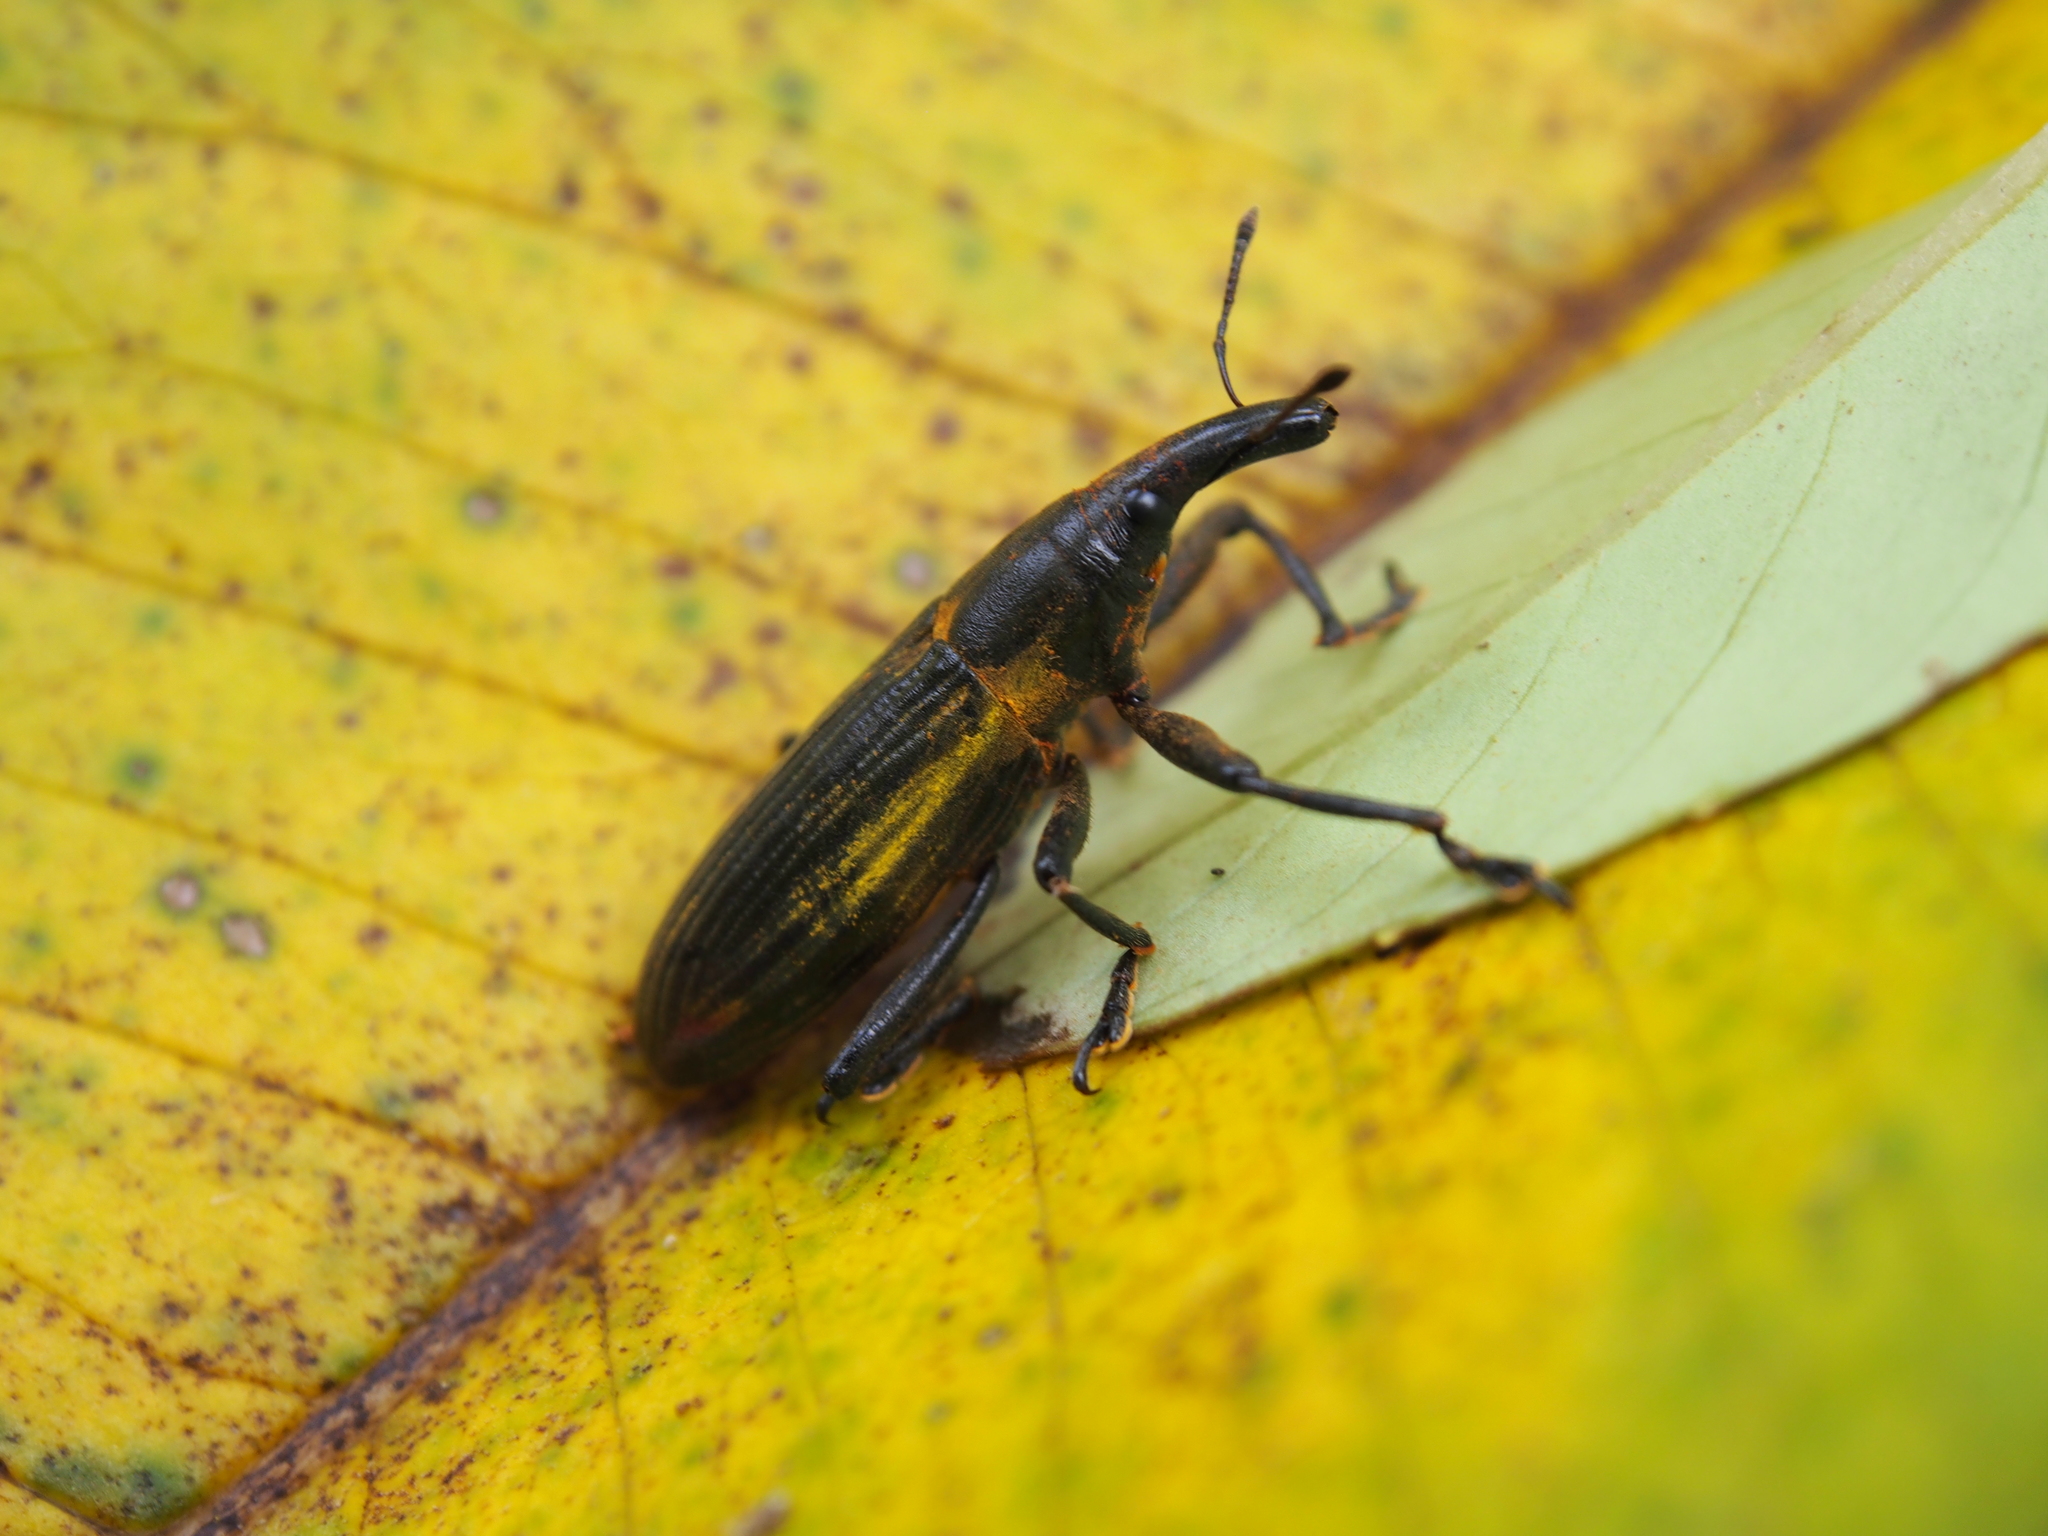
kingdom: Animalia
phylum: Arthropoda
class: Insecta
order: Coleoptera
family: Curculionidae
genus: Lixus
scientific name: Lixus apterus
